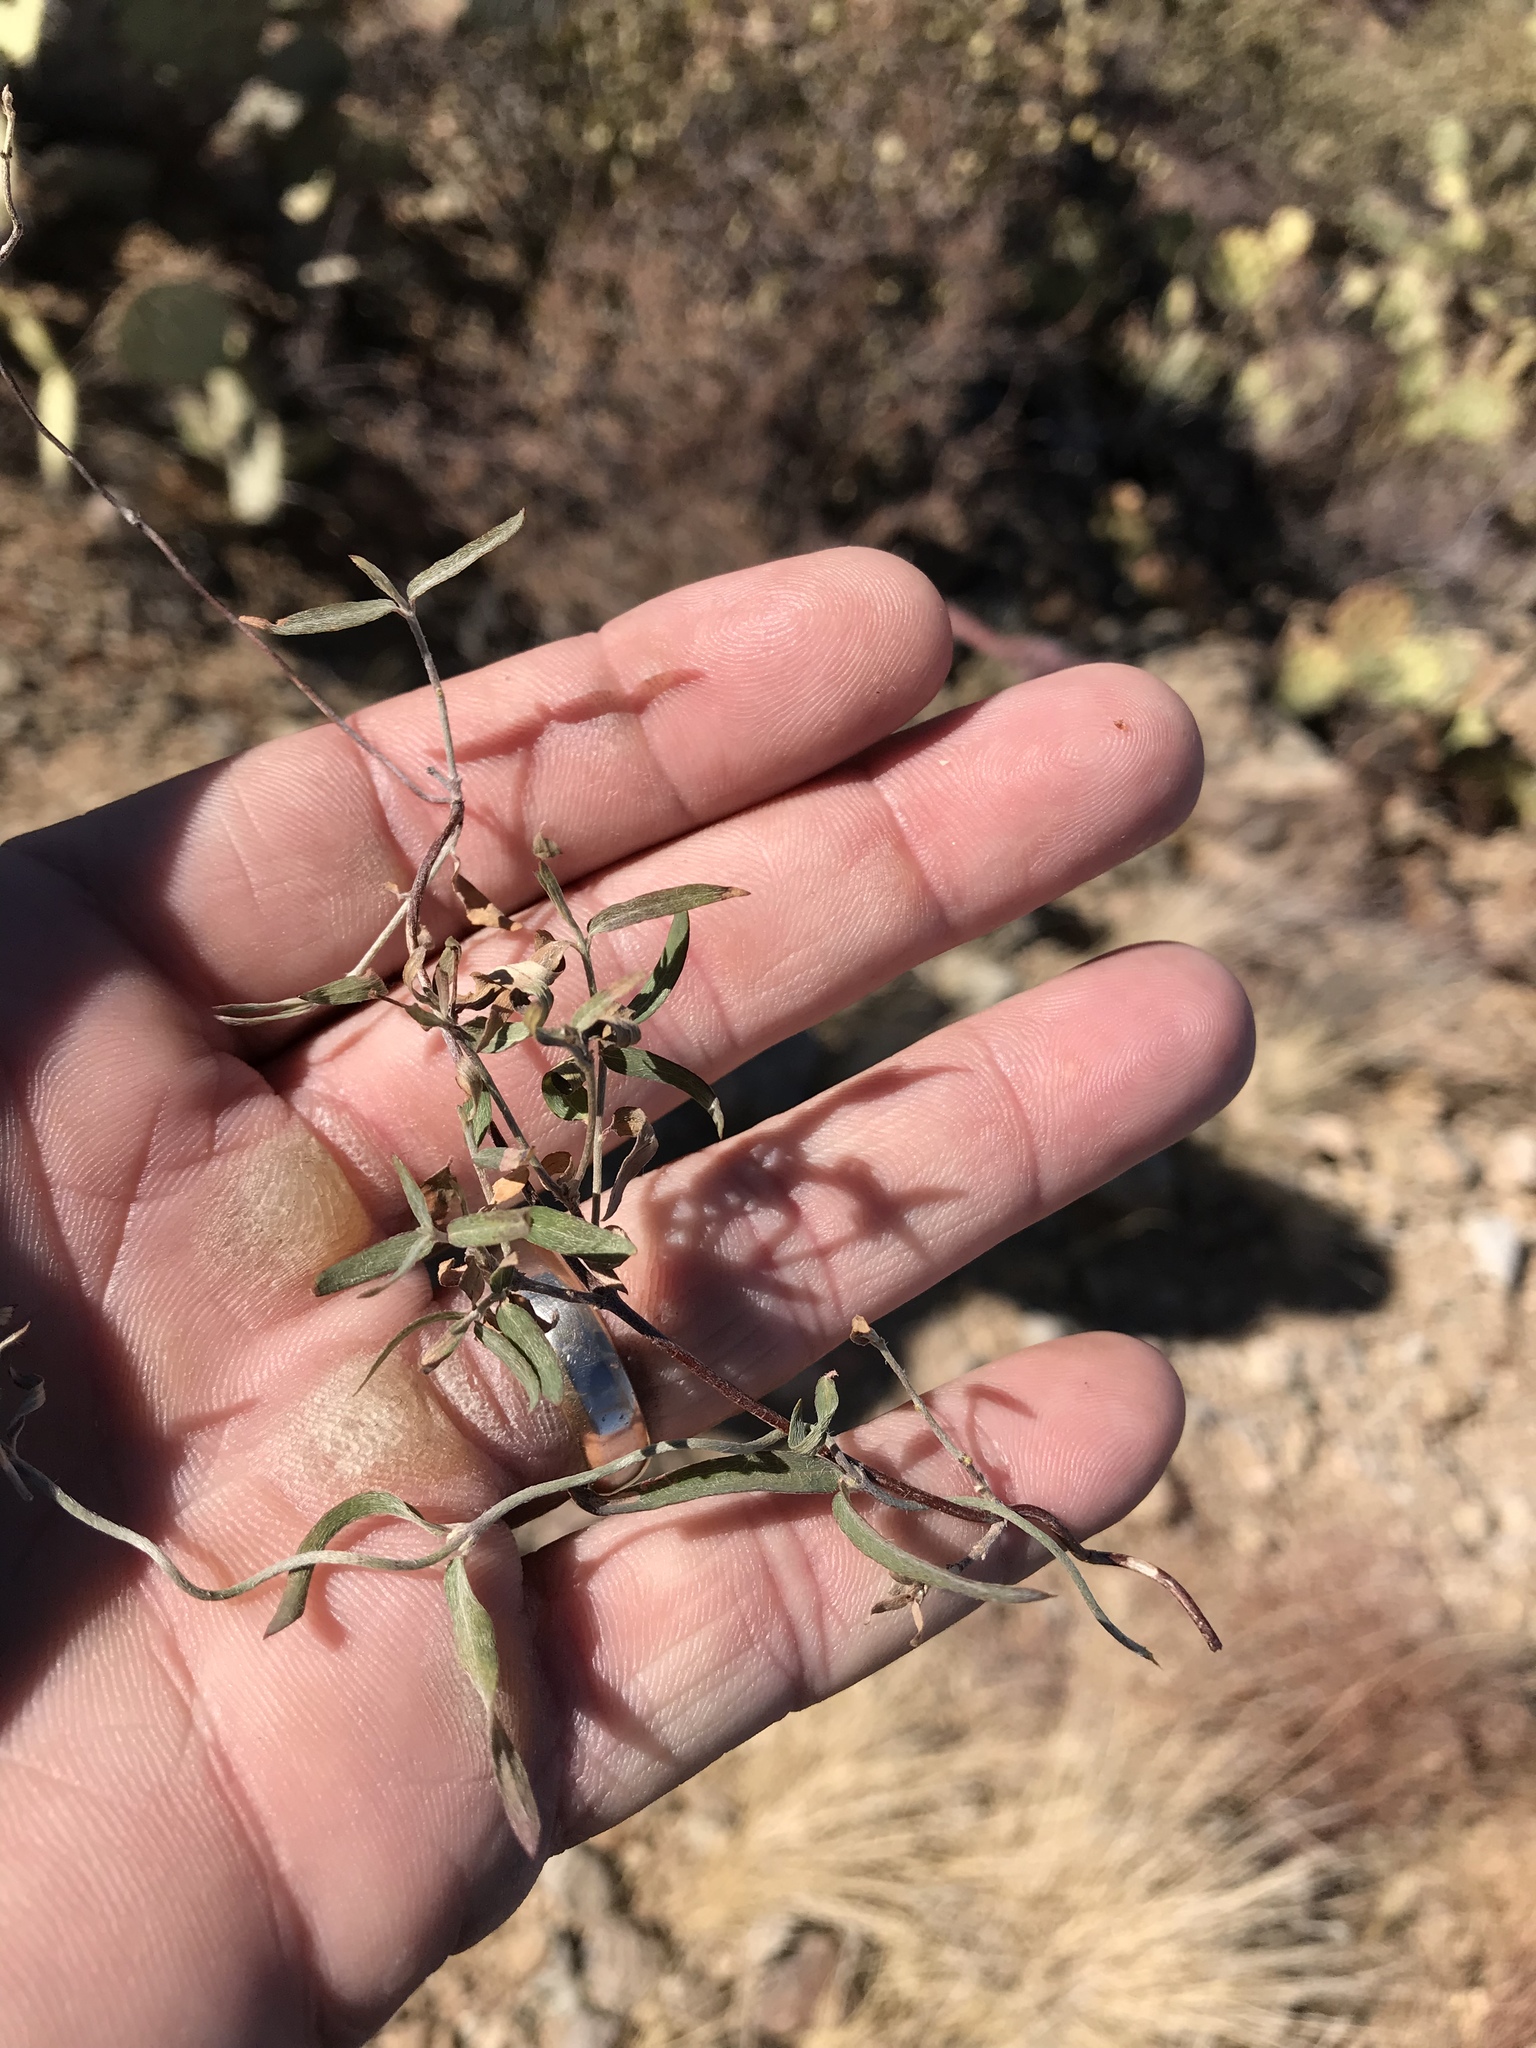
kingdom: Plantae
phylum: Tracheophyta
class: Magnoliopsida
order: Malpighiales
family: Malpighiaceae
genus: Cottsia
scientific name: Cottsia gracilis
